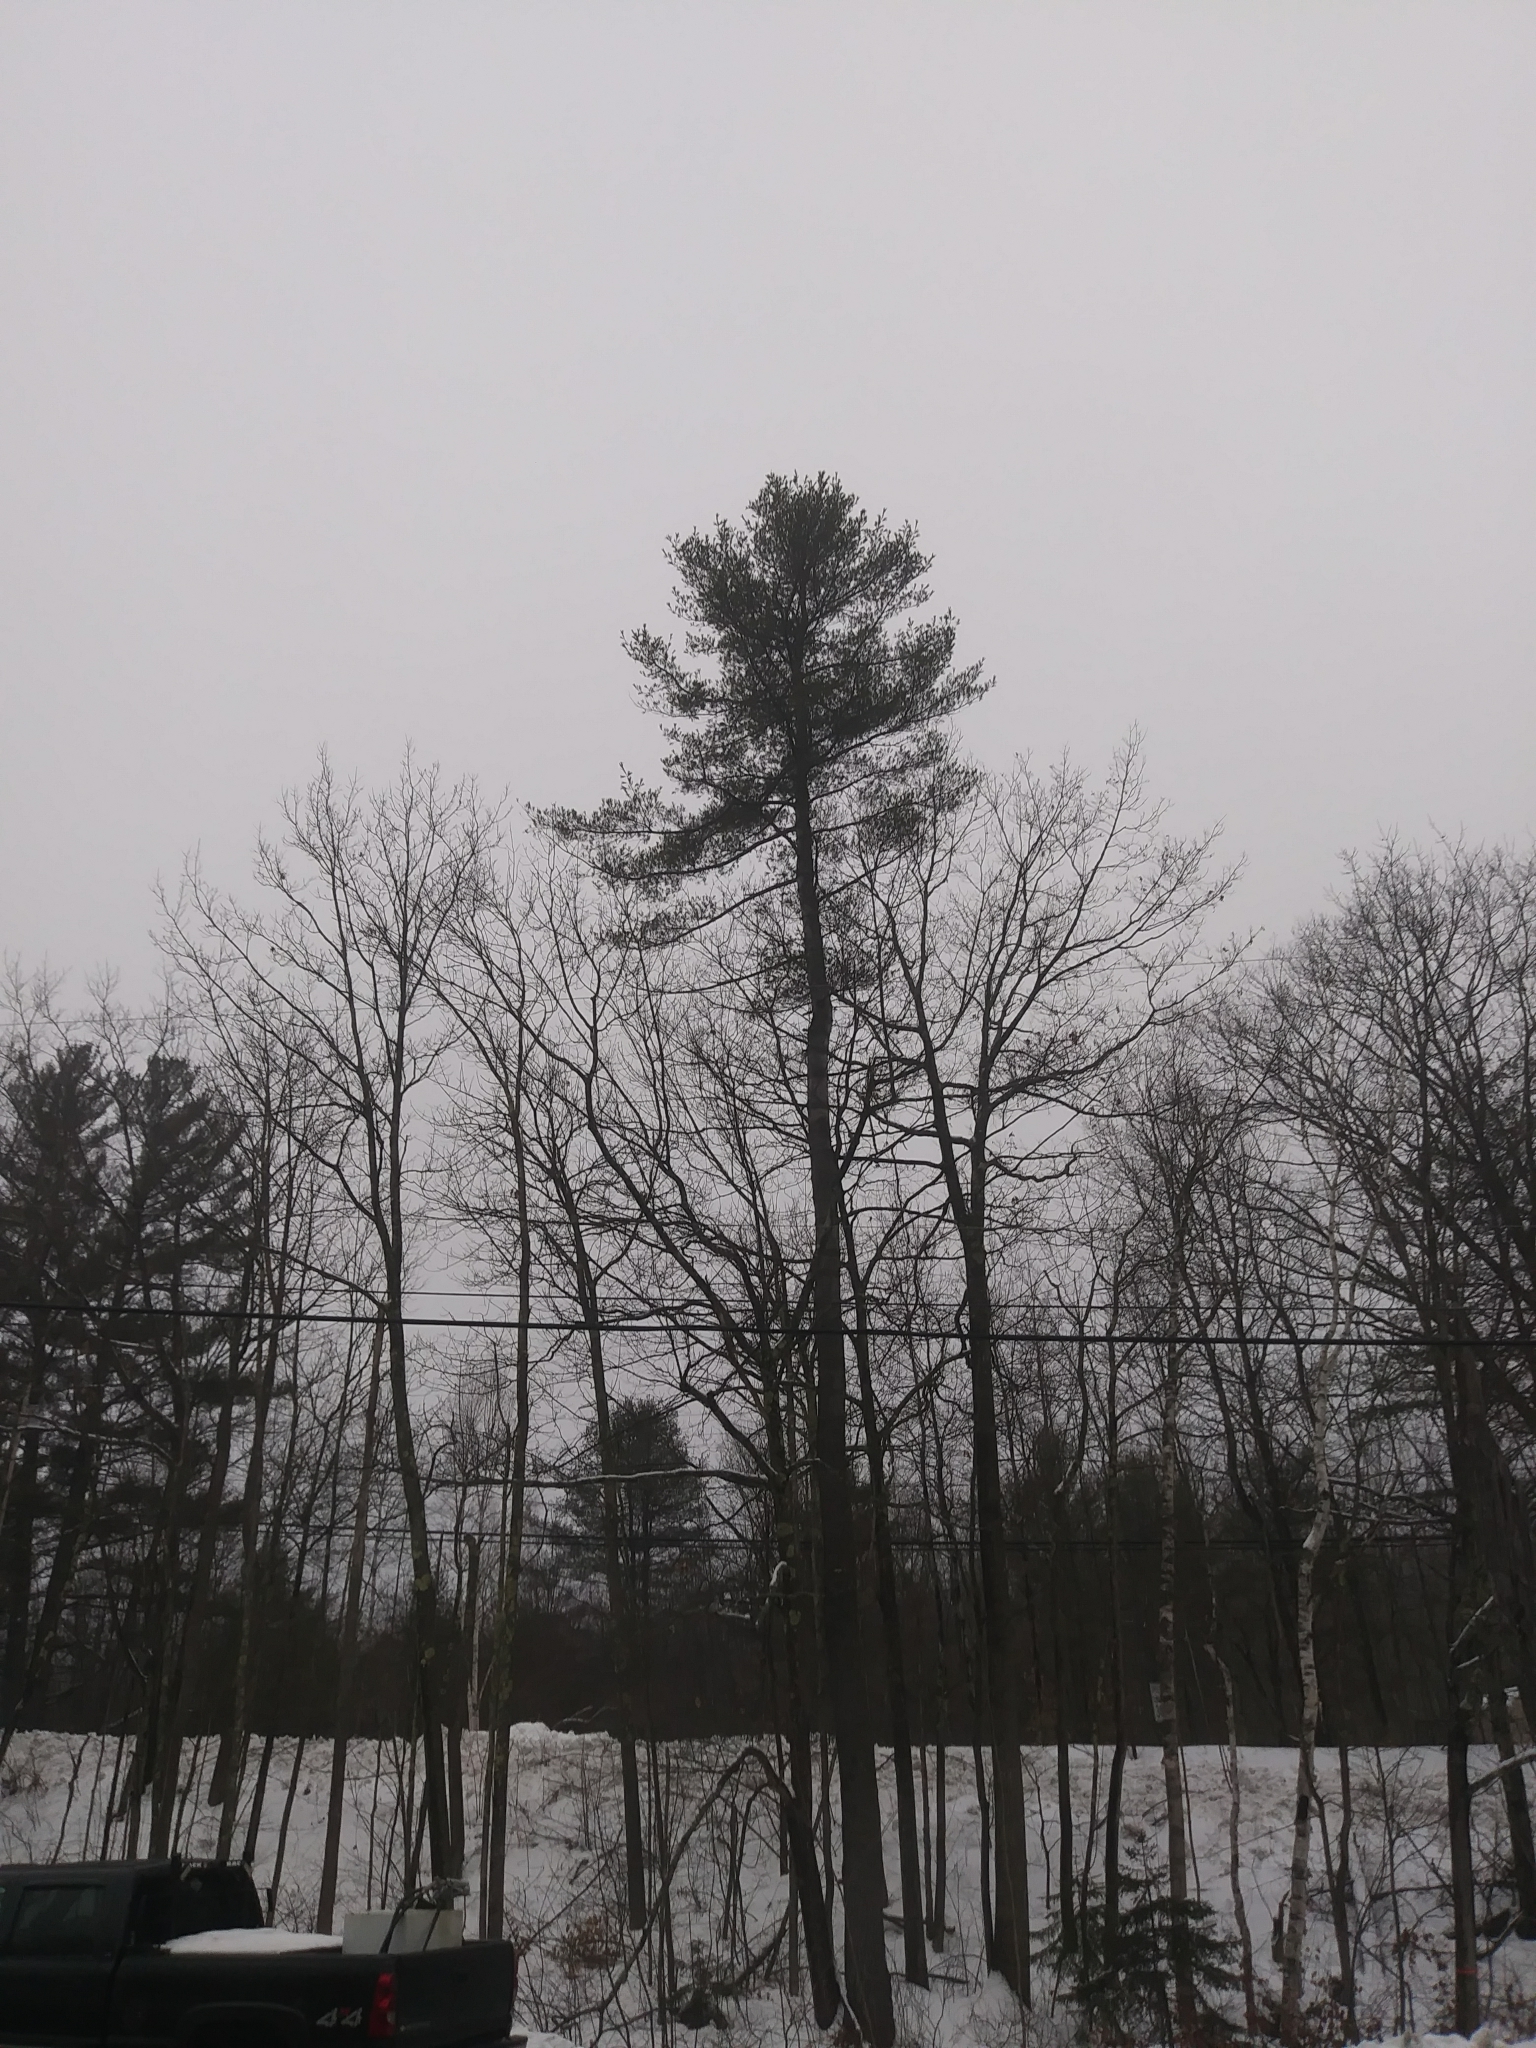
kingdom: Plantae
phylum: Tracheophyta
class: Pinopsida
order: Pinales
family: Pinaceae
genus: Pinus
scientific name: Pinus strobus
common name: Weymouth pine
